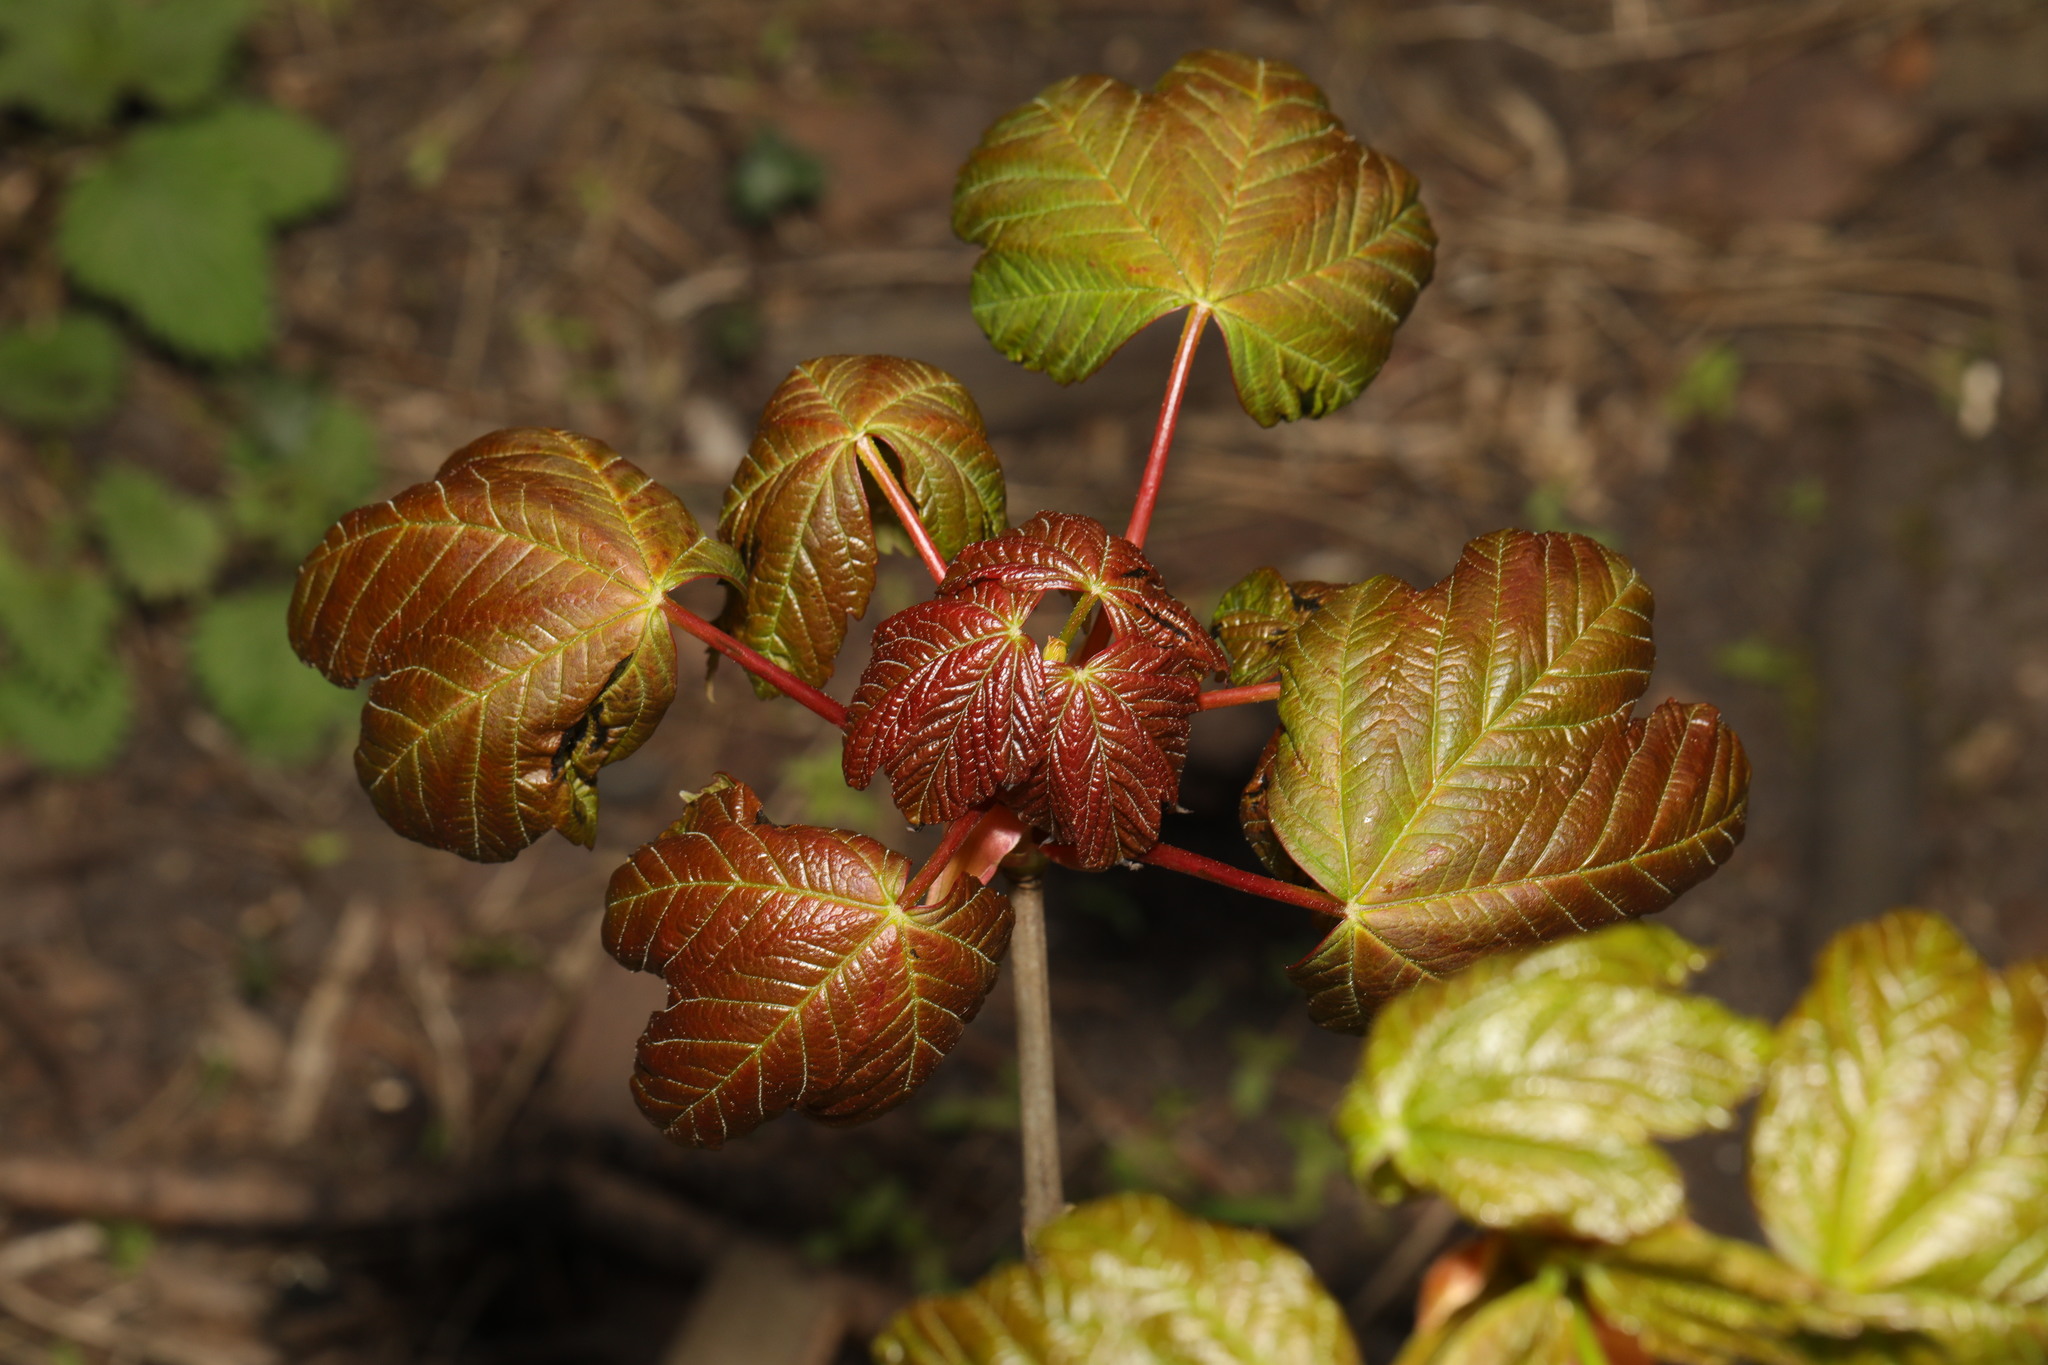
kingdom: Plantae
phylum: Tracheophyta
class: Magnoliopsida
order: Sapindales
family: Sapindaceae
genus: Acer
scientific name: Acer pseudoplatanus
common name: Sycamore
